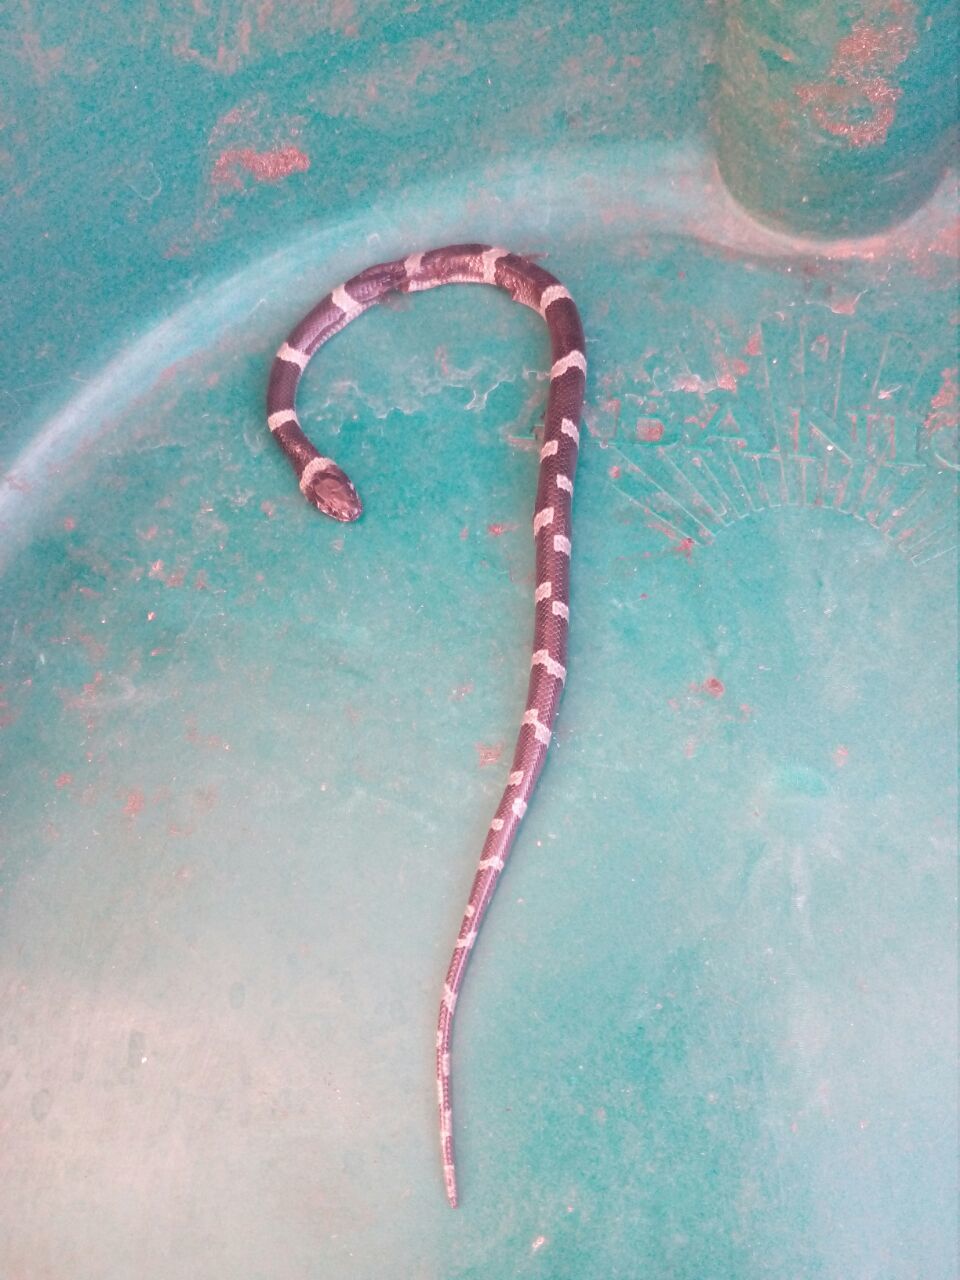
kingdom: Animalia
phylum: Chordata
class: Squamata
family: Colubridae
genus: Leptodeira
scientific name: Leptodeira nigrofasciata
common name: Black-banded cat-eyed snake
